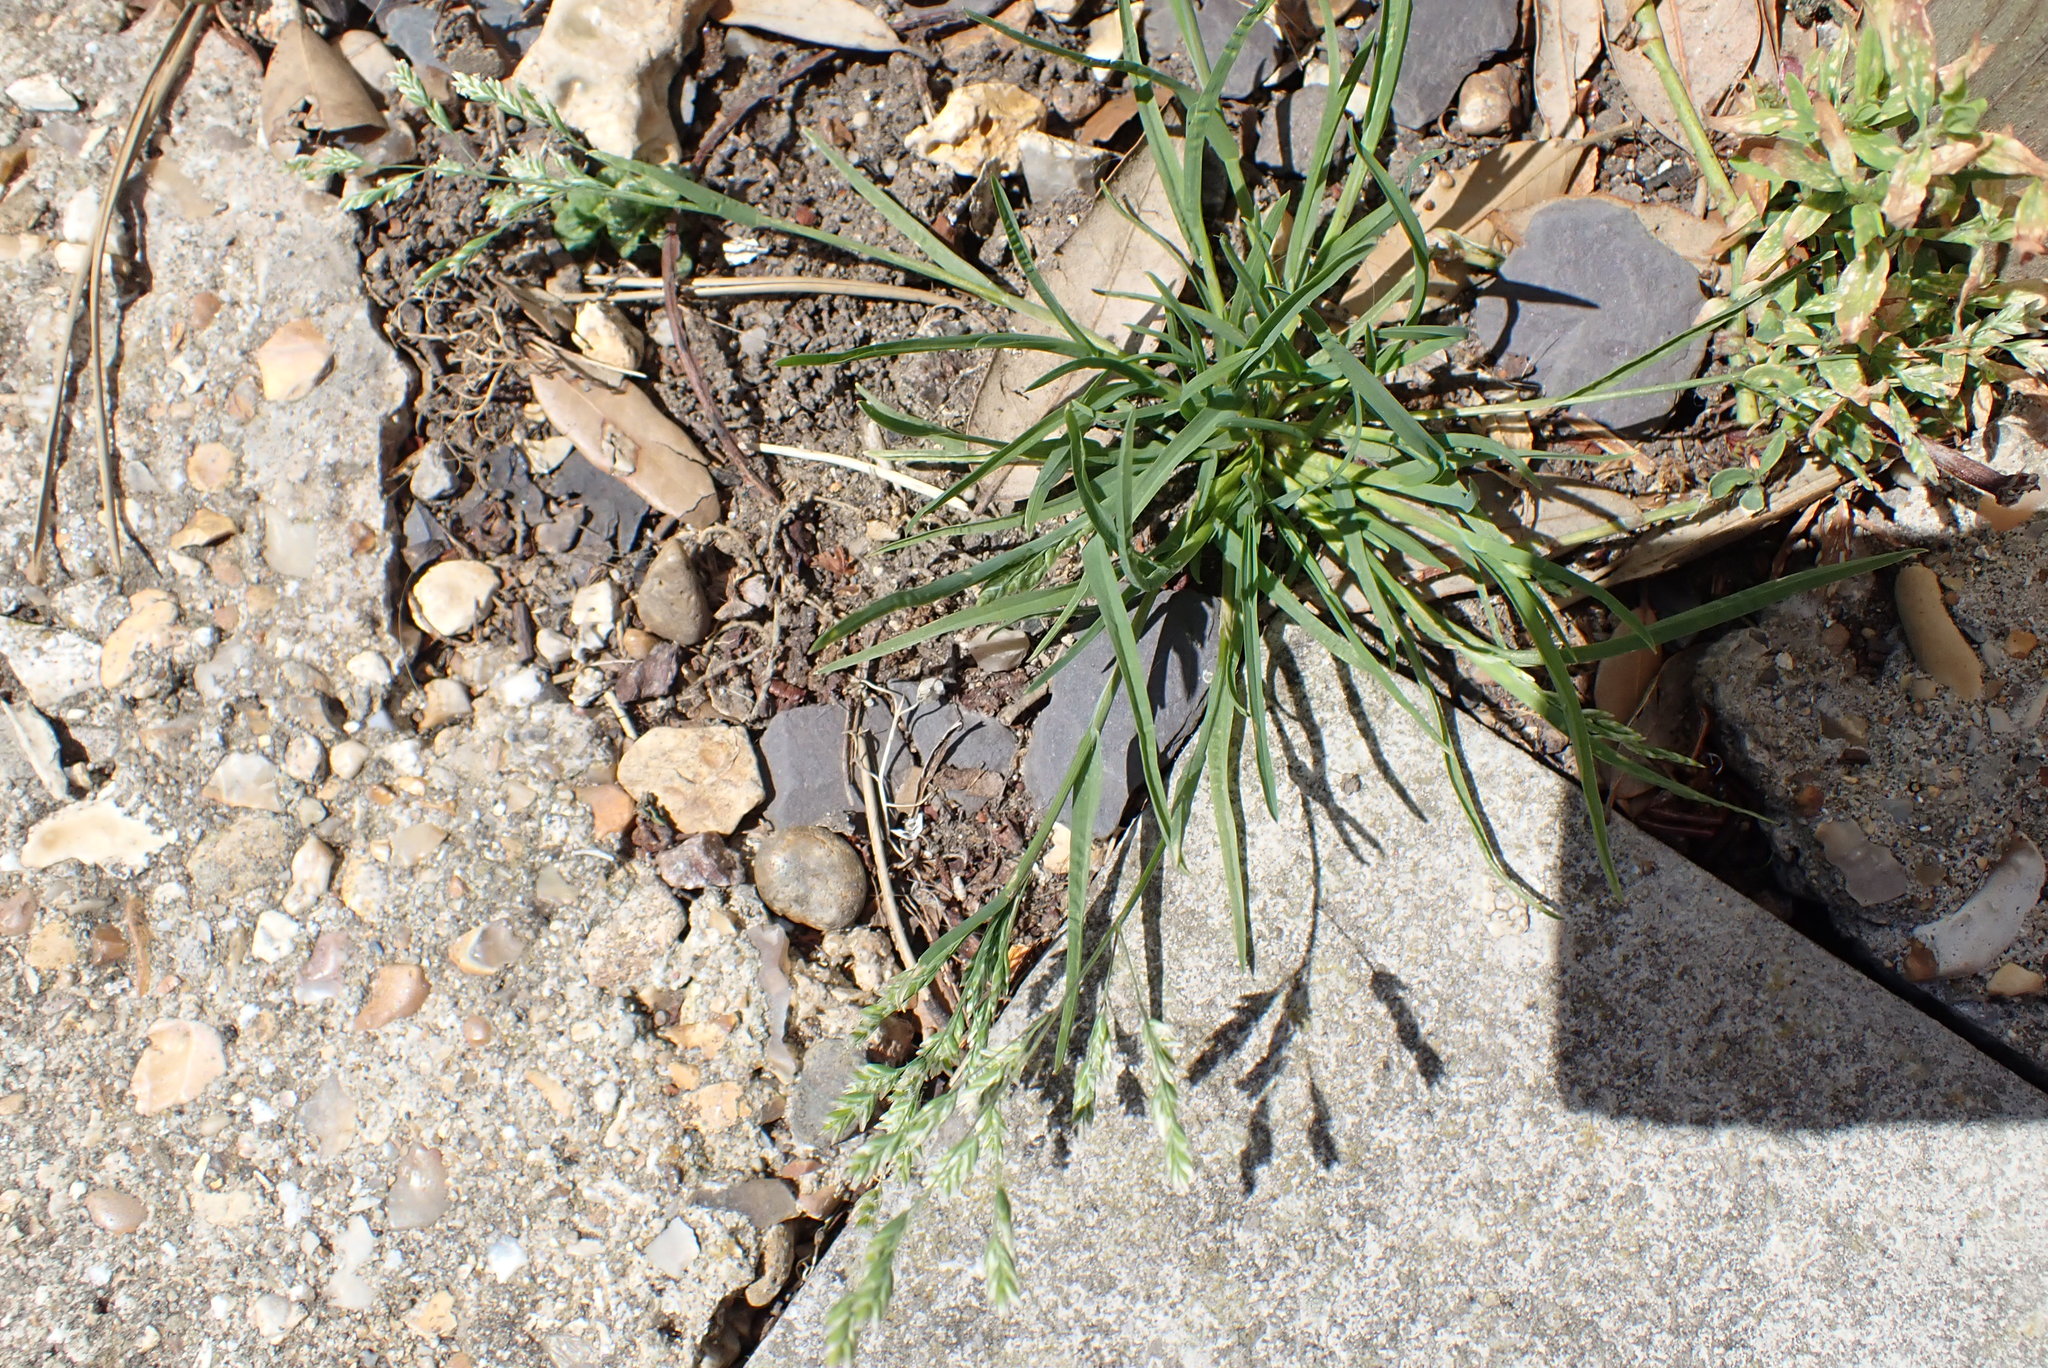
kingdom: Plantae
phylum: Tracheophyta
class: Liliopsida
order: Poales
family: Poaceae
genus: Poa
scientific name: Poa annua
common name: Annual bluegrass
